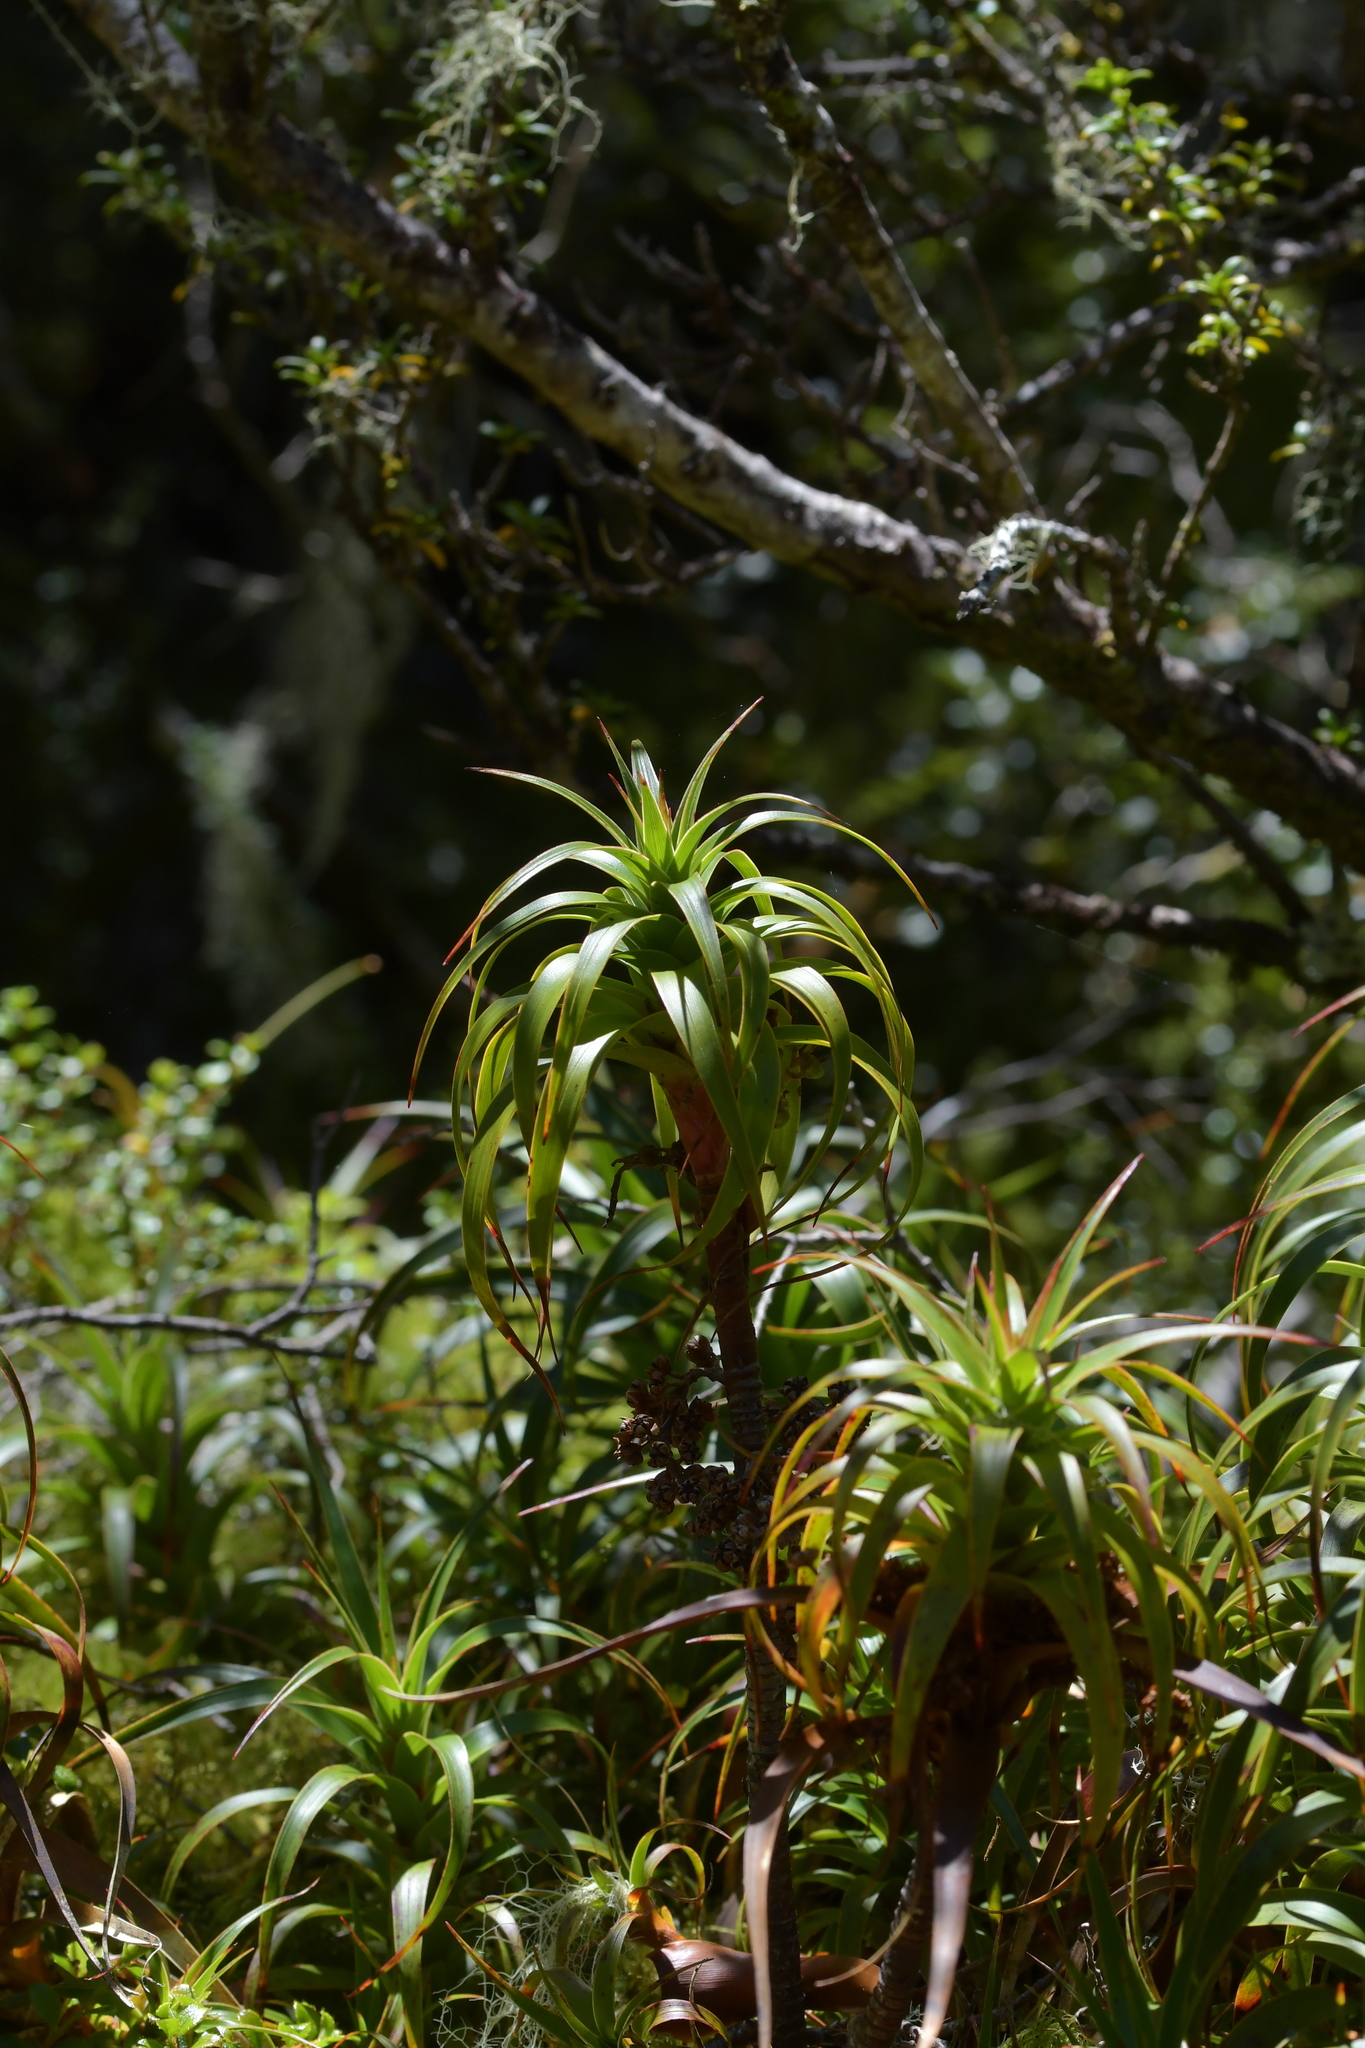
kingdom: Plantae
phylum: Tracheophyta
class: Magnoliopsida
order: Ericales
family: Ericaceae
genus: Dracophyllum
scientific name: Dracophyllum menziesii
